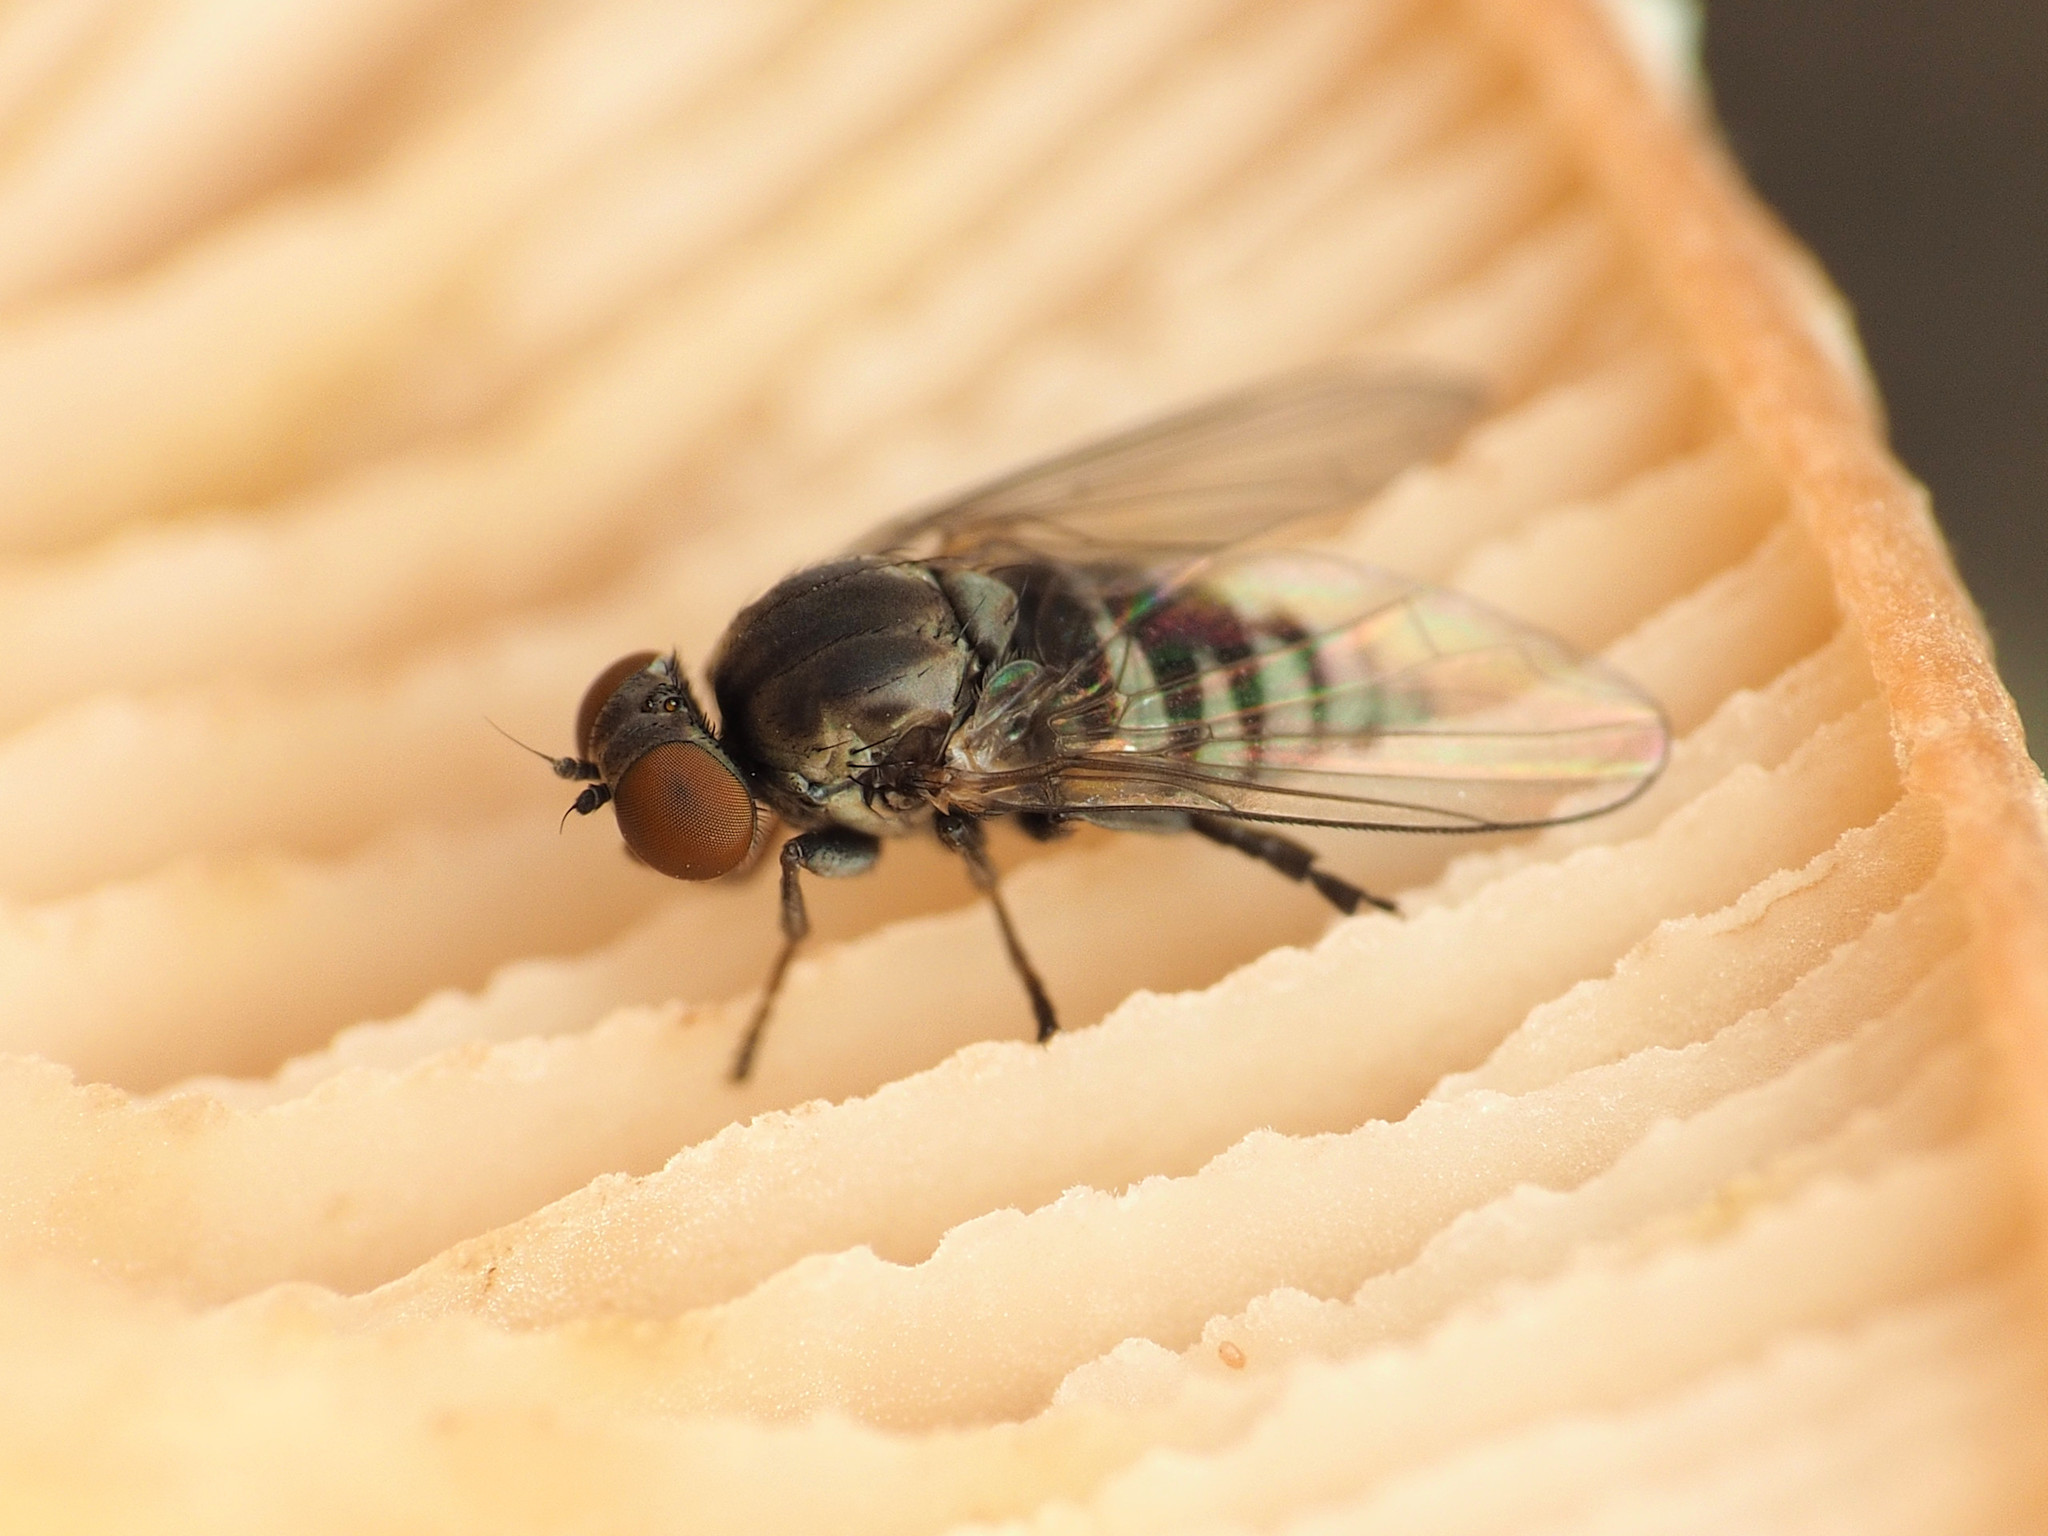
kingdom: Animalia
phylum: Arthropoda
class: Insecta
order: Diptera
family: Platypezidae
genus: Platypeza
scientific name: Platypeza banksi
